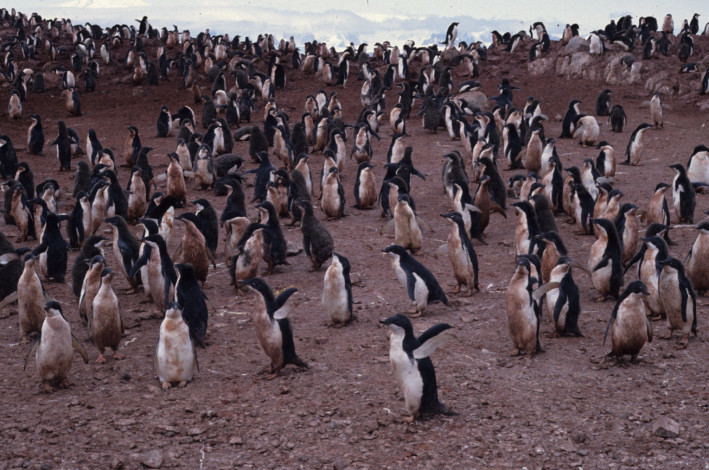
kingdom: Animalia
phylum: Chordata
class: Aves
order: Sphenisciformes
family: Spheniscidae
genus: Pygoscelis
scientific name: Pygoscelis adeliae
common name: Adelie penguin
